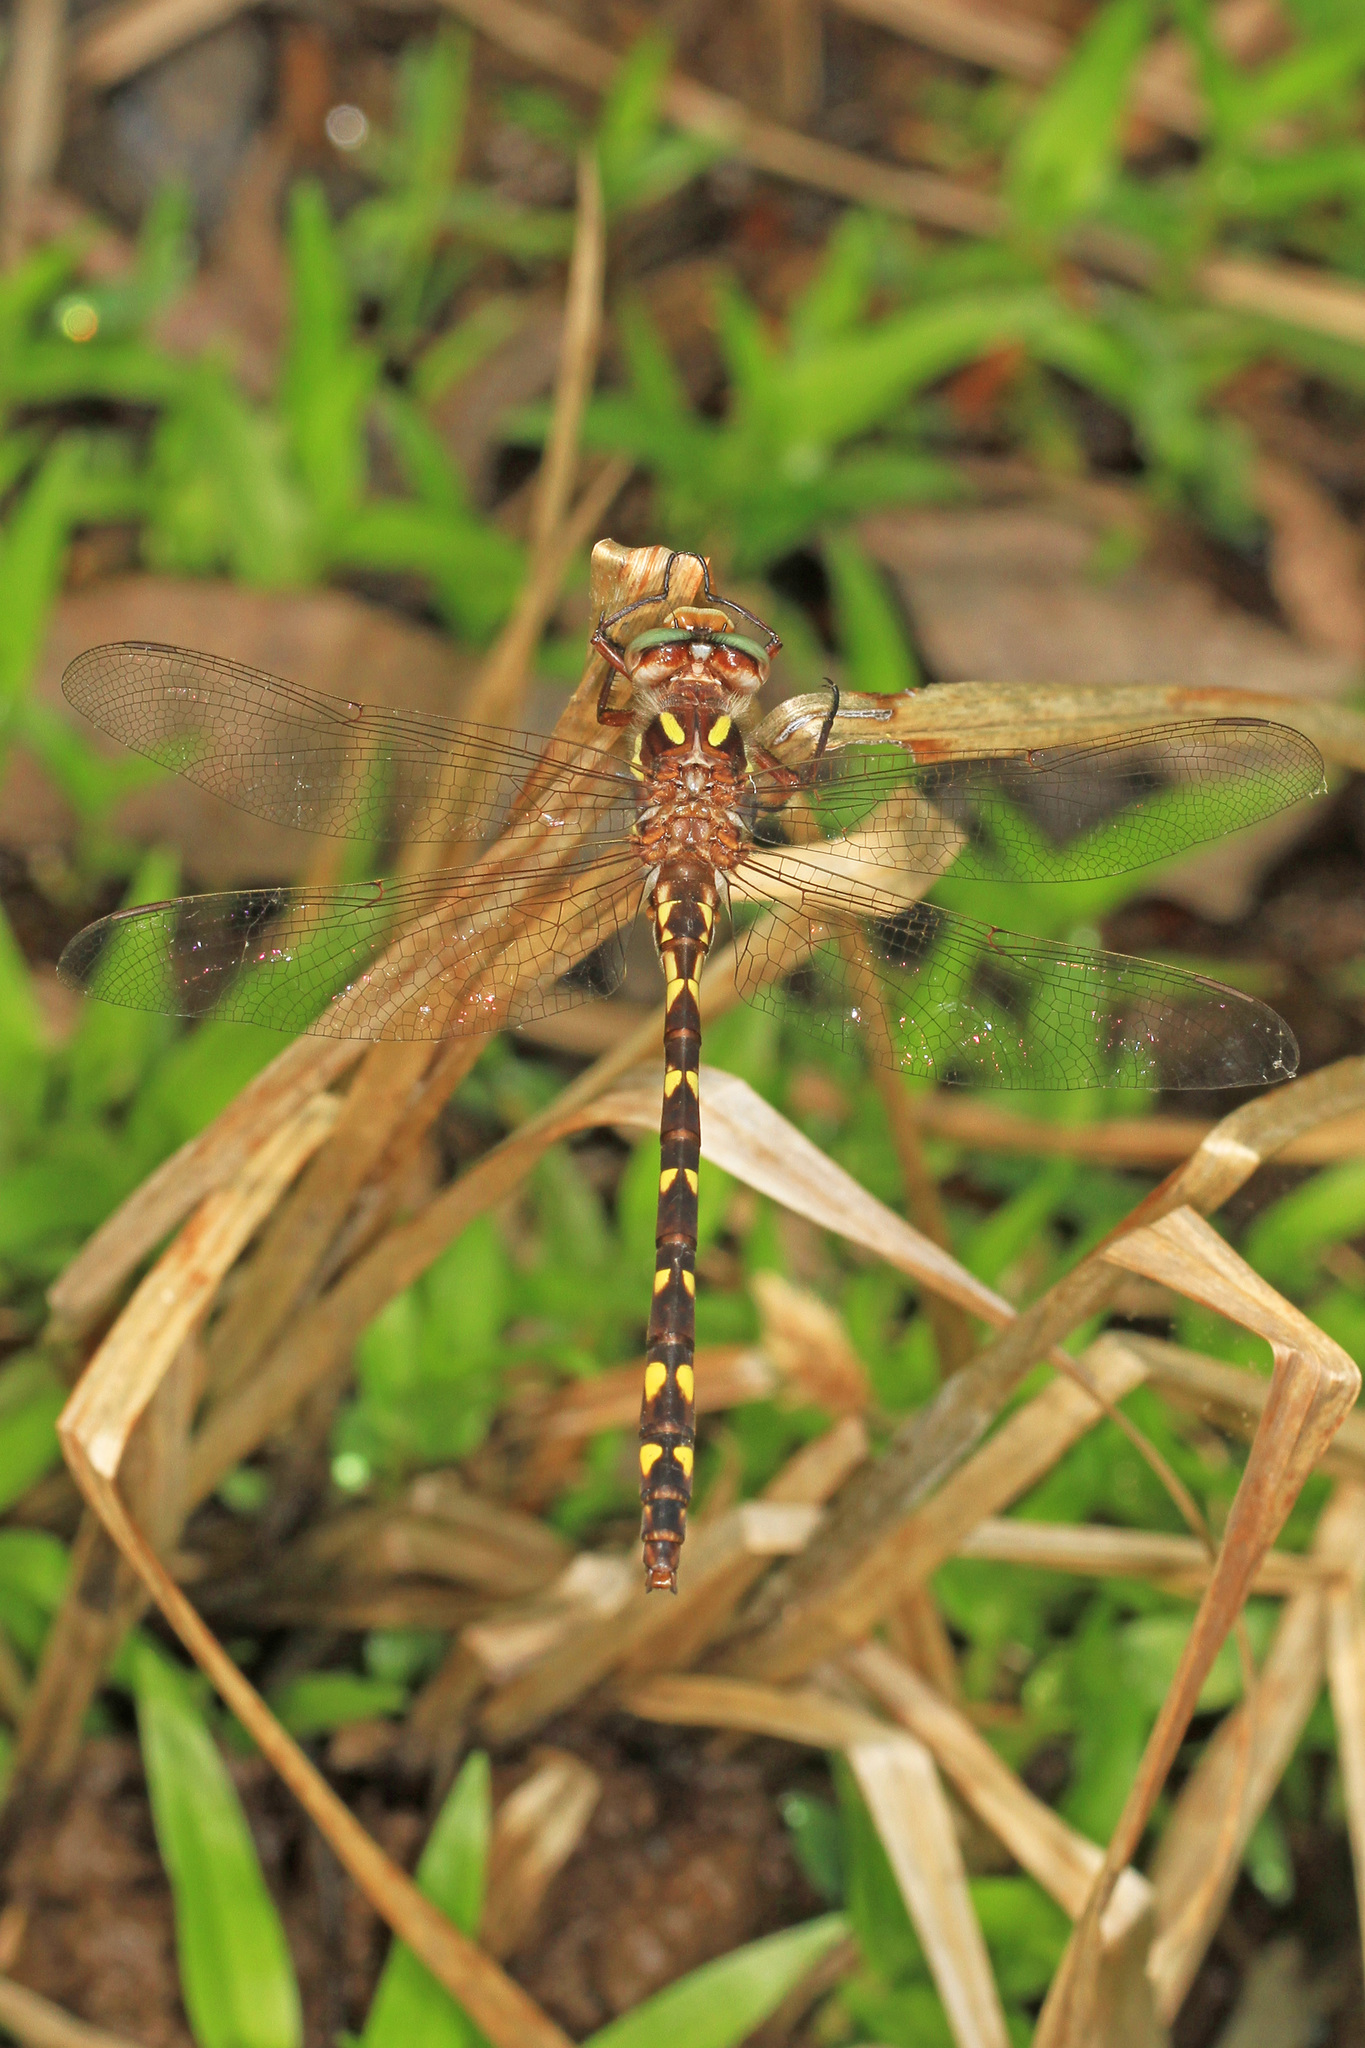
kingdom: Animalia
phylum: Arthropoda
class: Insecta
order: Odonata
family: Cordulegastridae
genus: Cordulegaster
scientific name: Cordulegaster bilineata
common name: Brown spiketail
